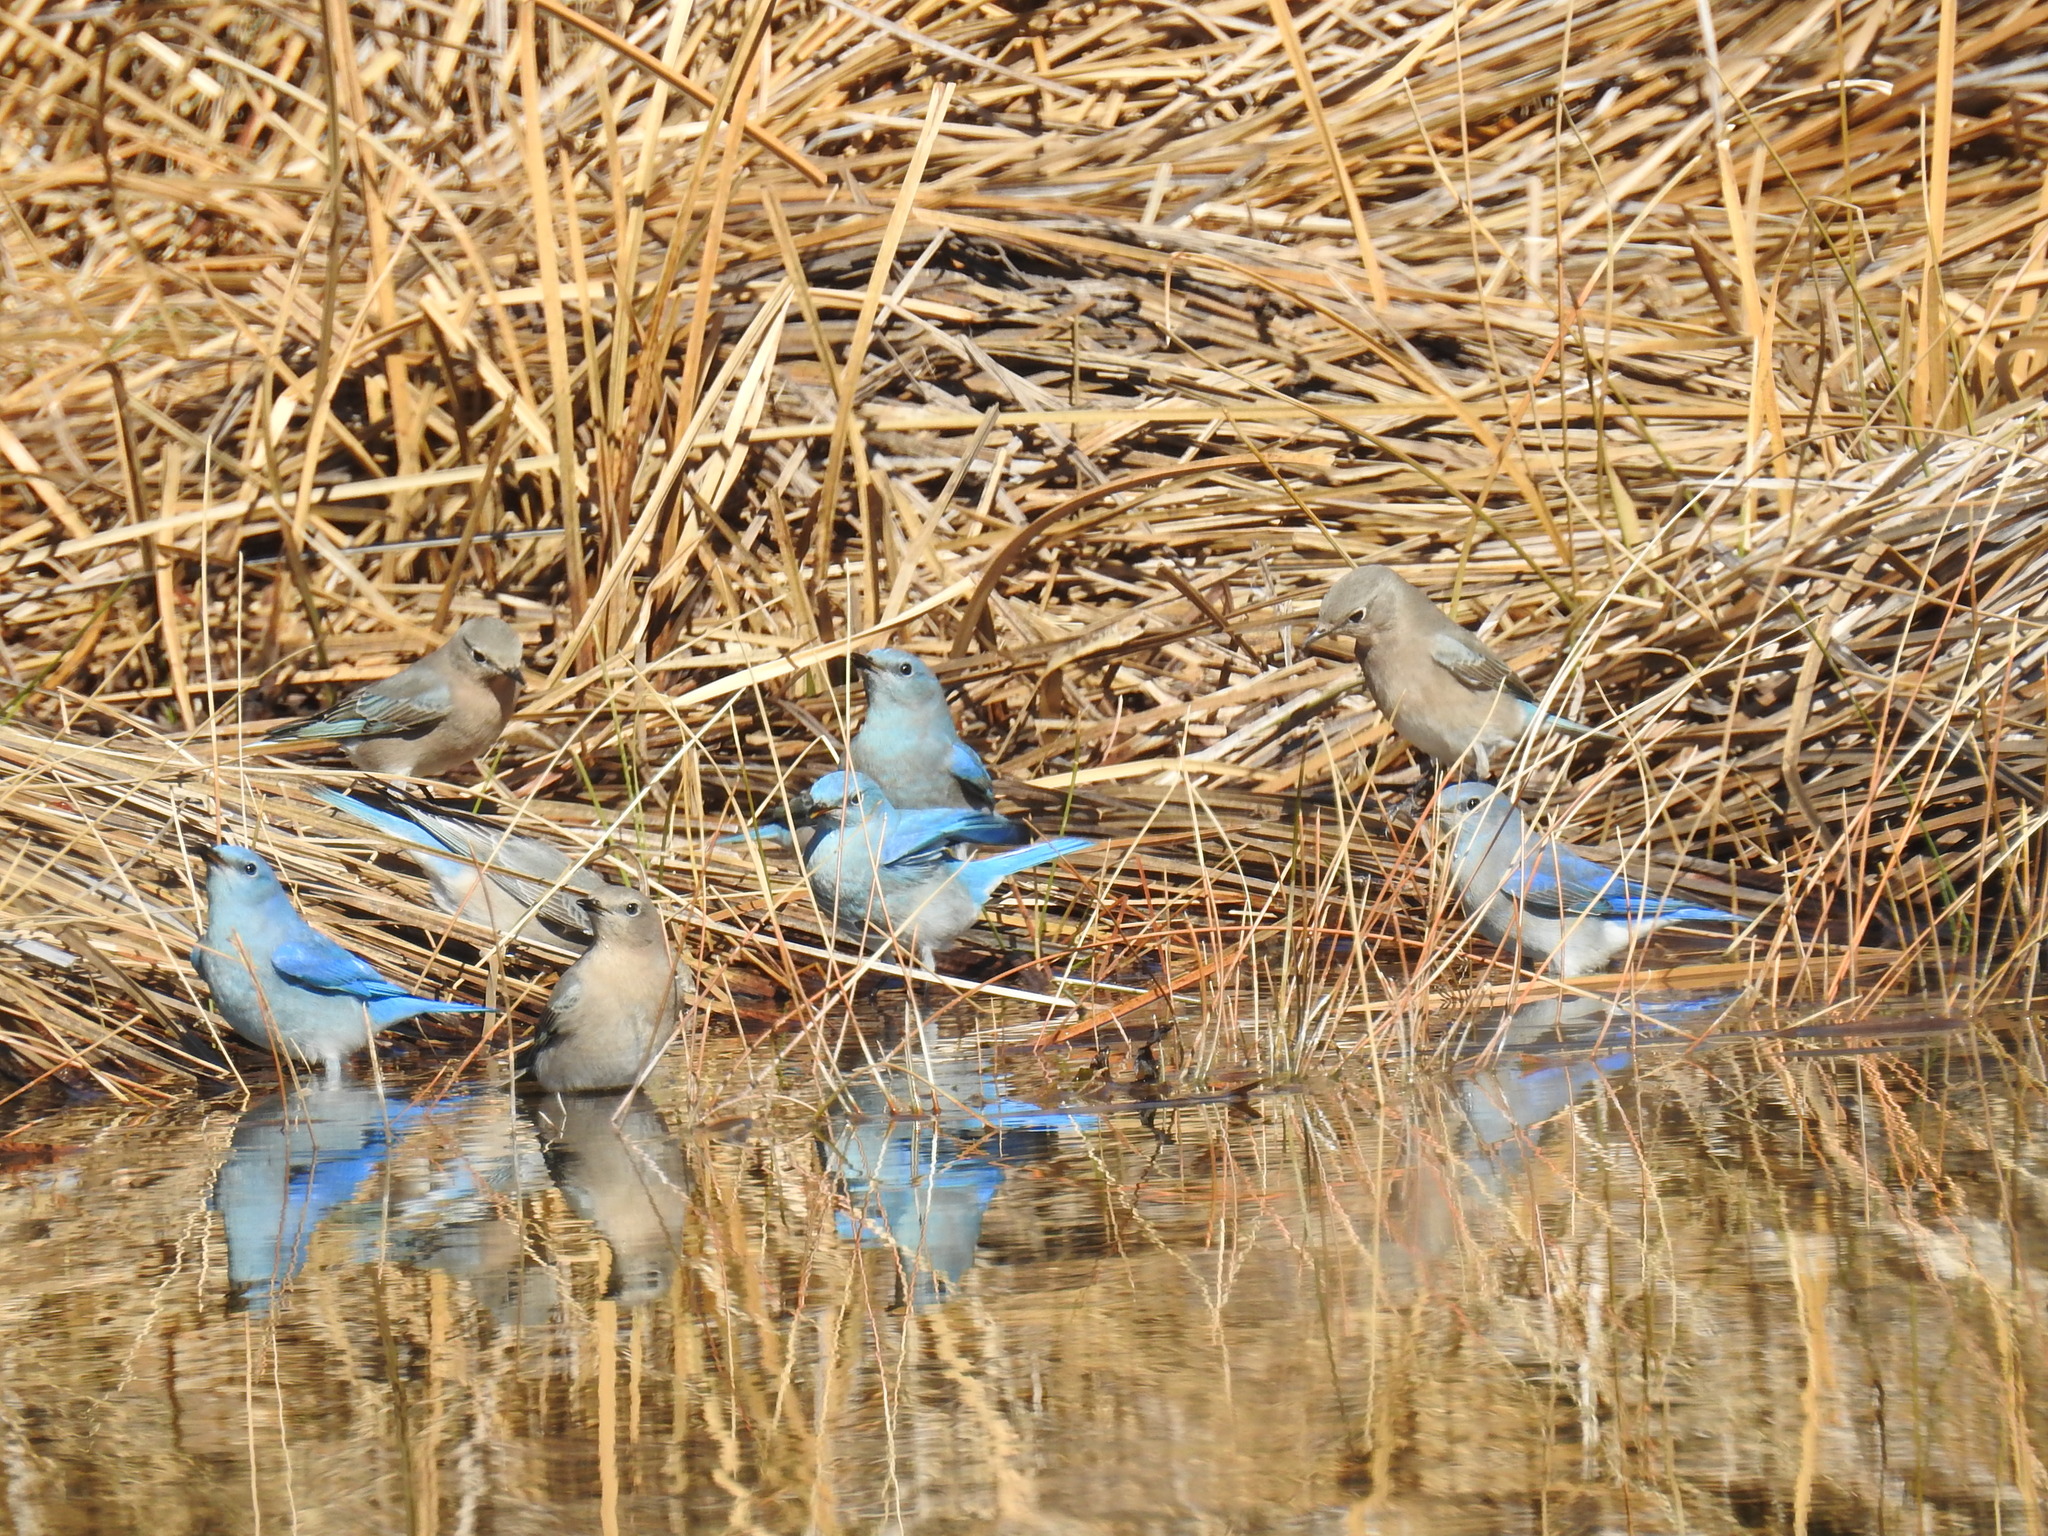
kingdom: Animalia
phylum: Chordata
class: Aves
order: Passeriformes
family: Turdidae
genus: Sialia
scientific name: Sialia currucoides
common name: Mountain bluebird
